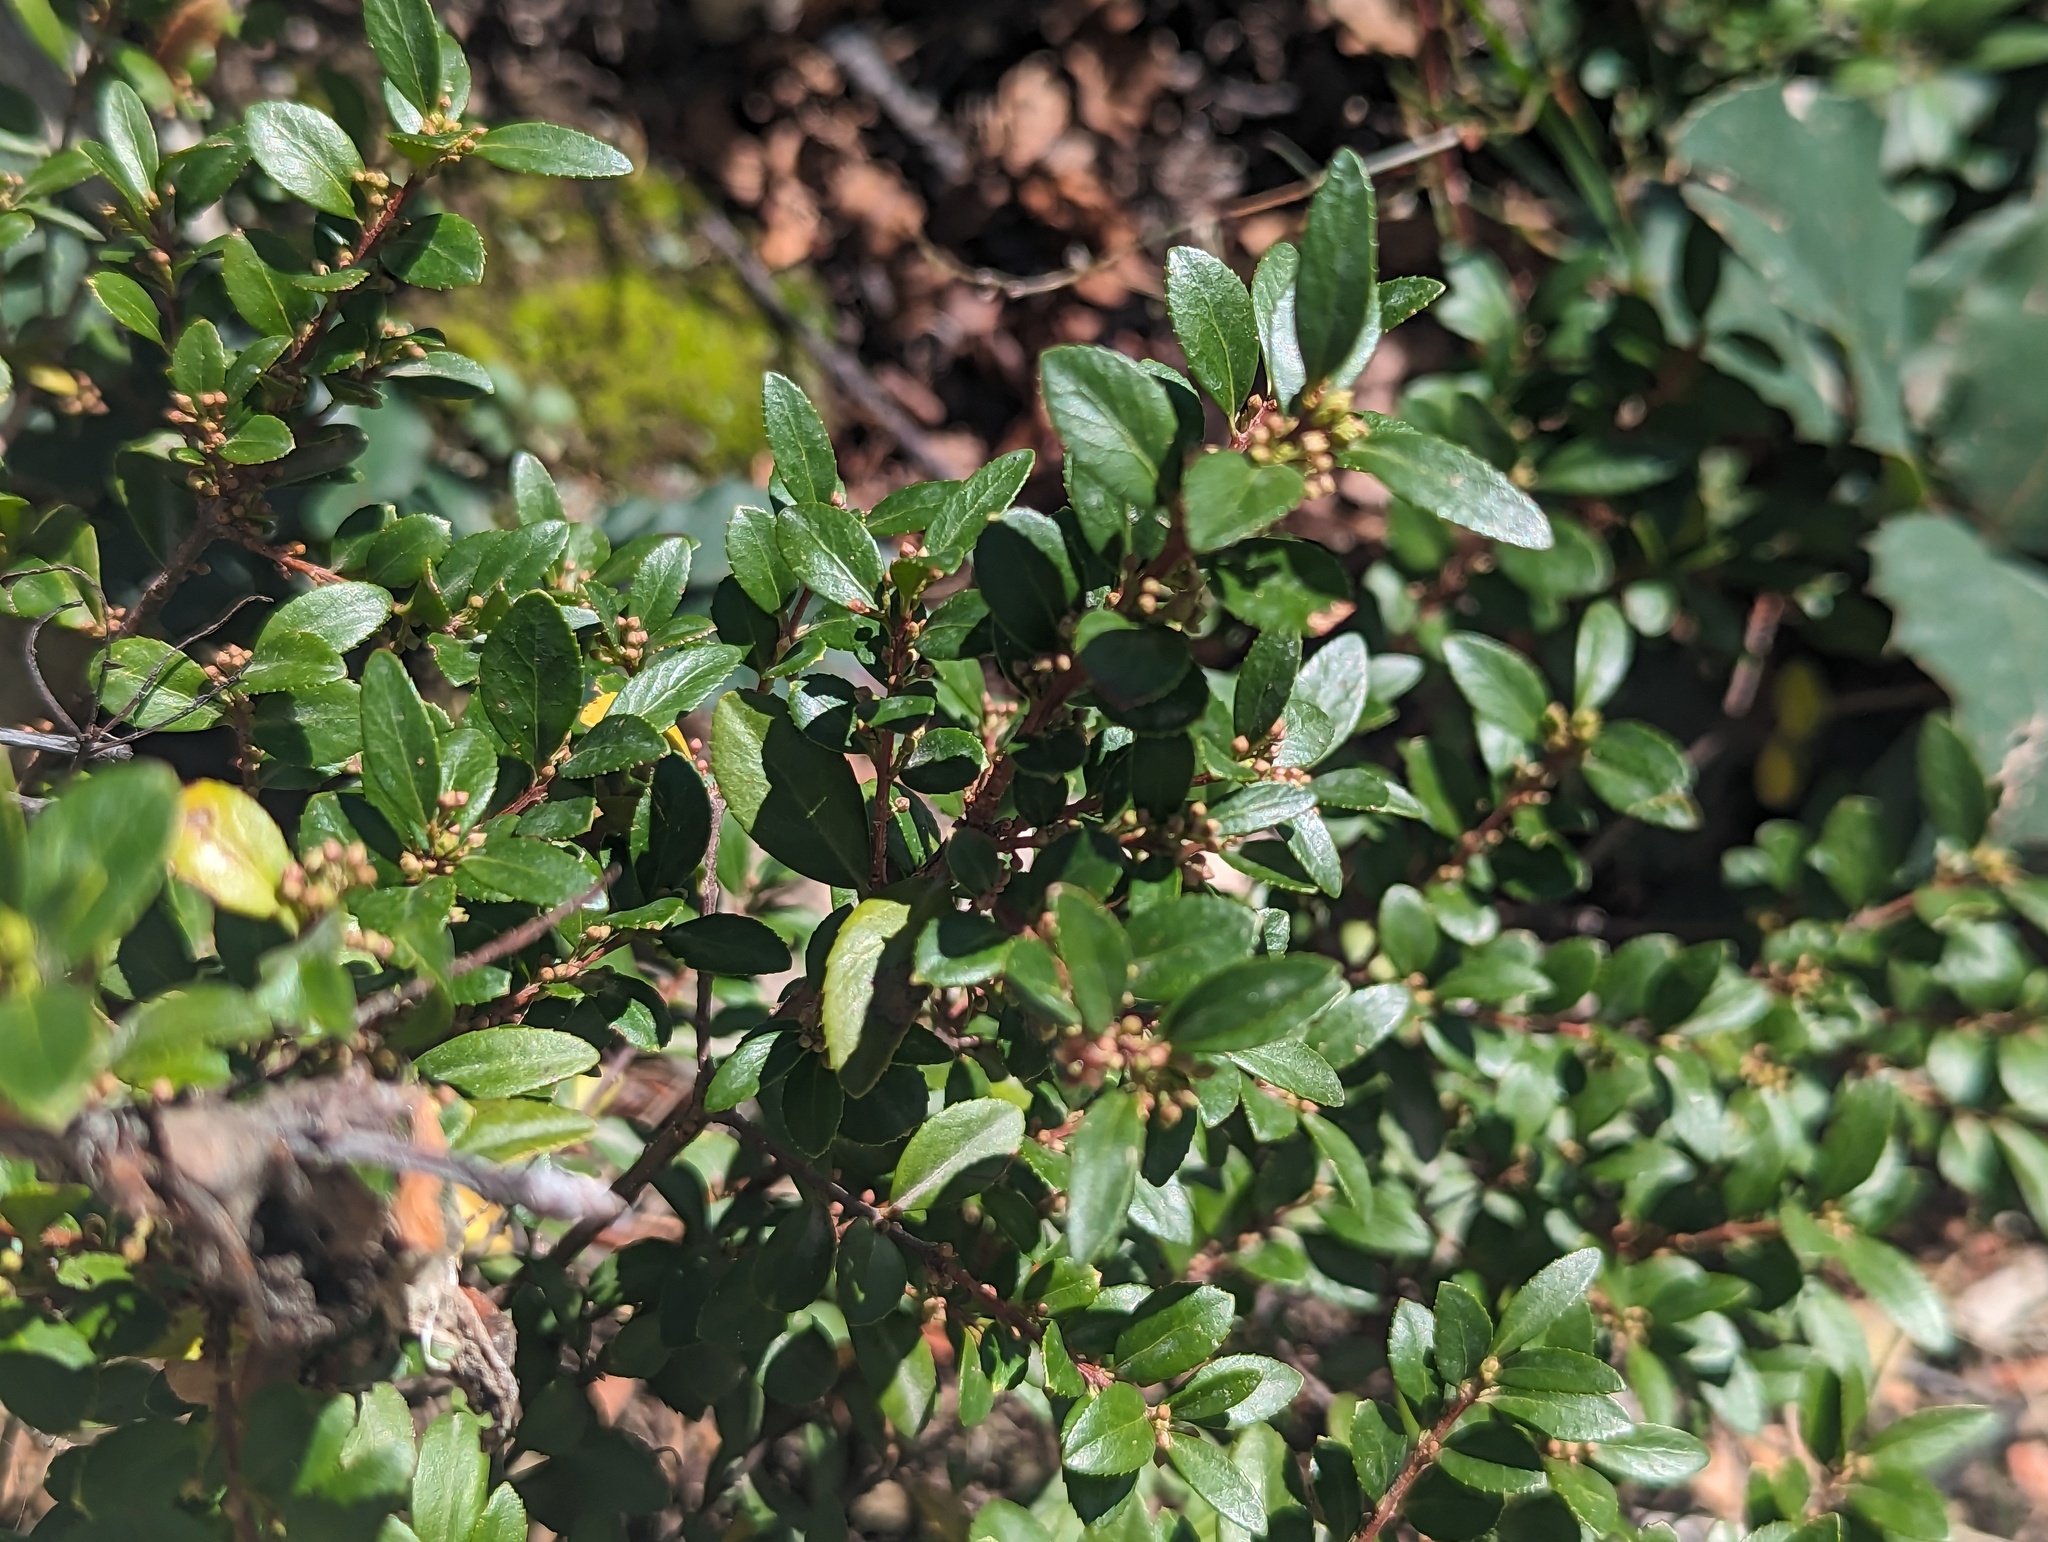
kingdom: Plantae
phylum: Tracheophyta
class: Magnoliopsida
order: Celastrales
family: Celastraceae
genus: Paxistima
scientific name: Paxistima myrsinites
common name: Mountain-lover
